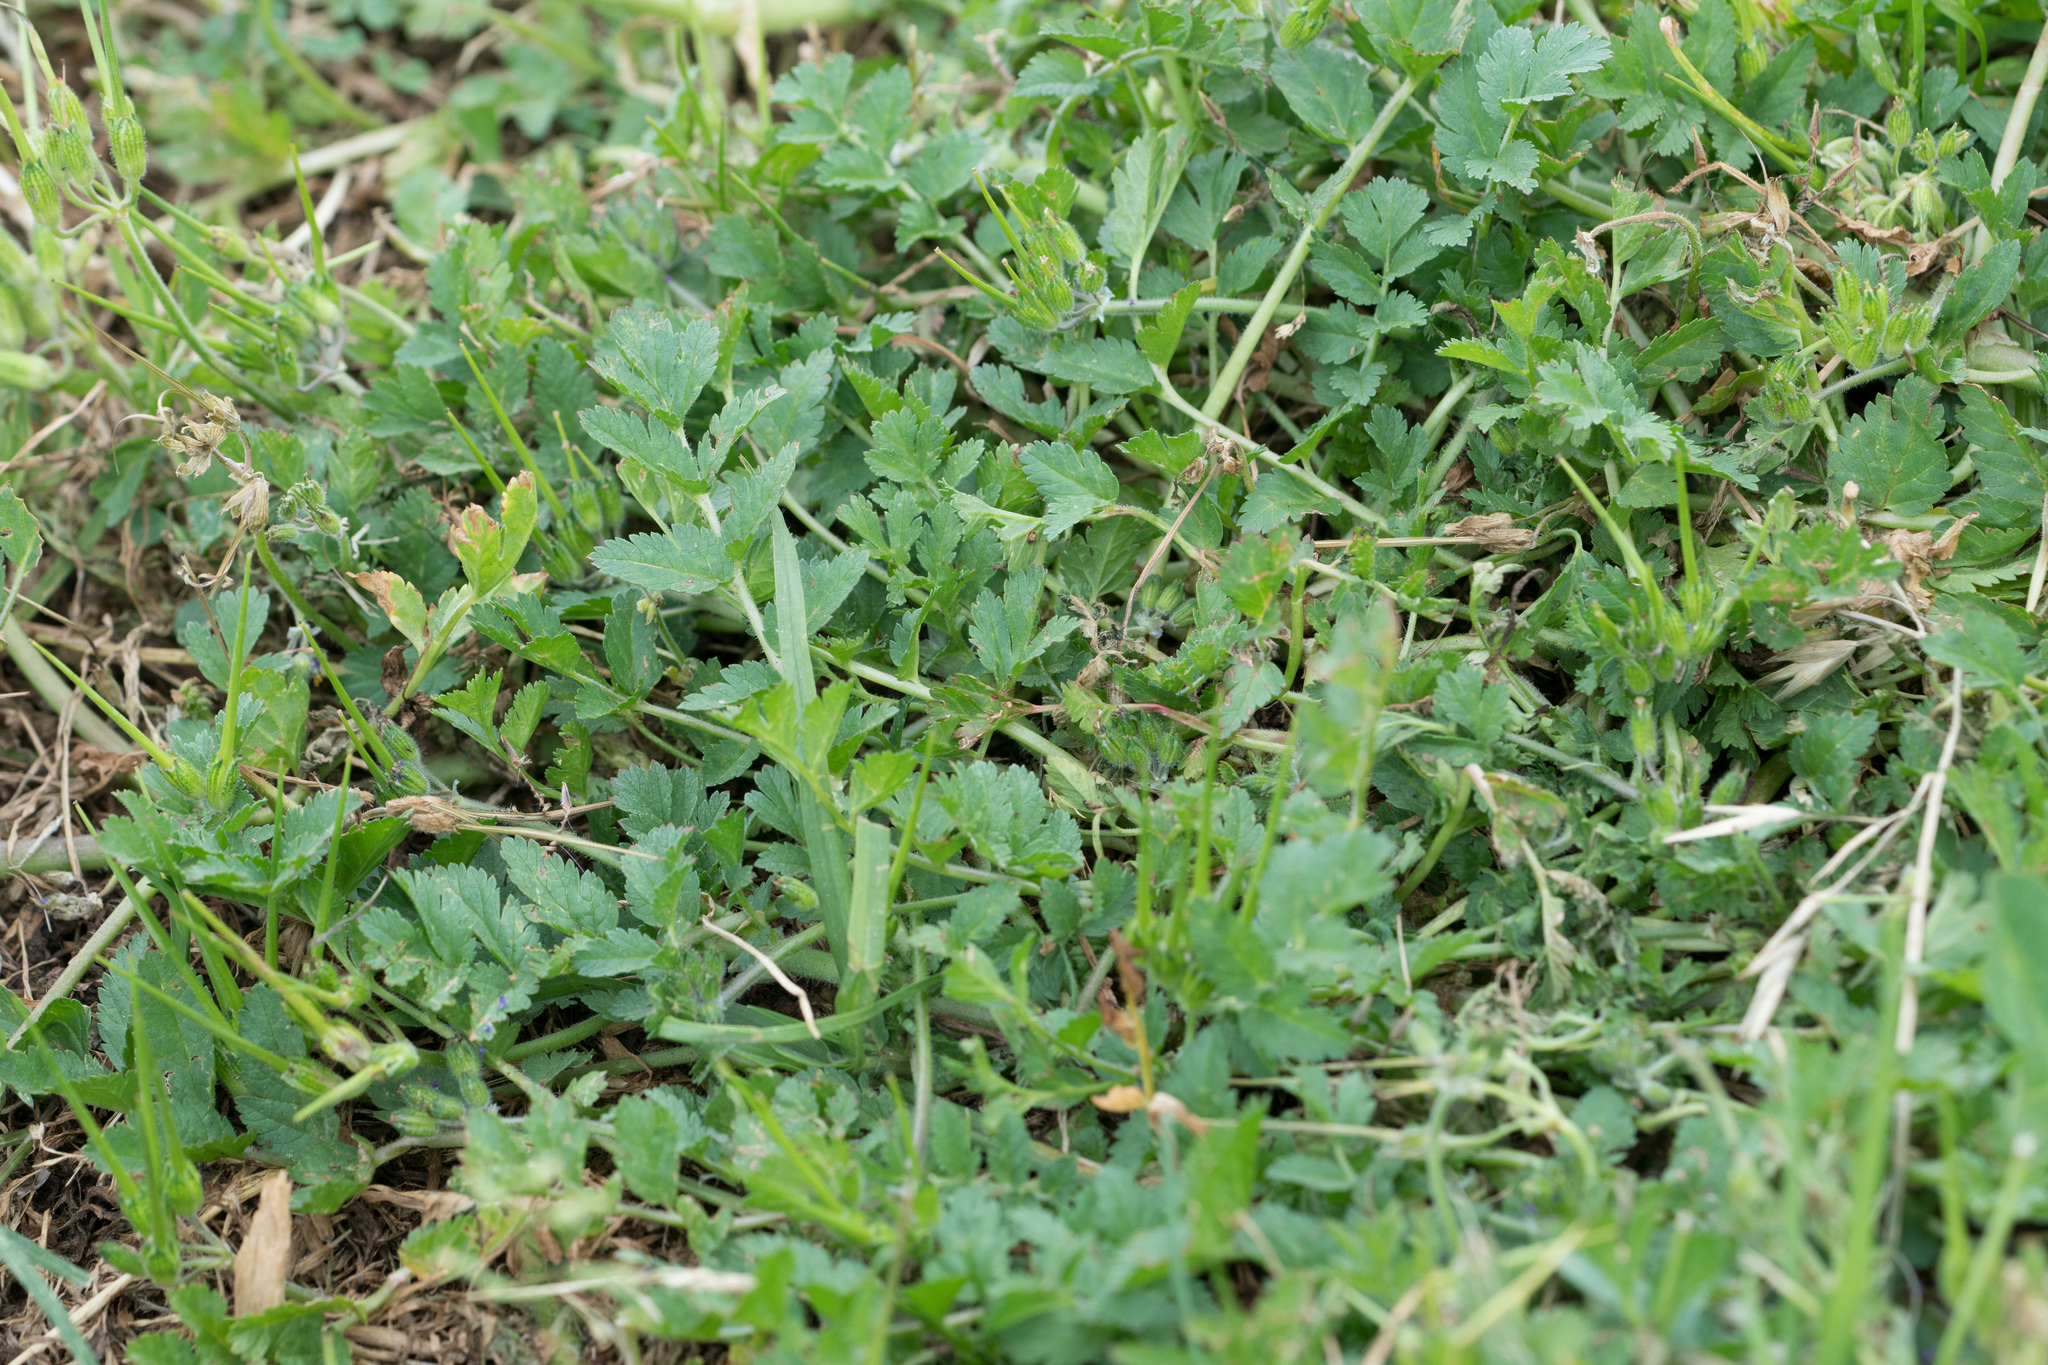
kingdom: Plantae
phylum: Tracheophyta
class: Magnoliopsida
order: Geraniales
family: Geraniaceae
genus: Erodium
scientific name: Erodium moschatum
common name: Musk stork's-bill
